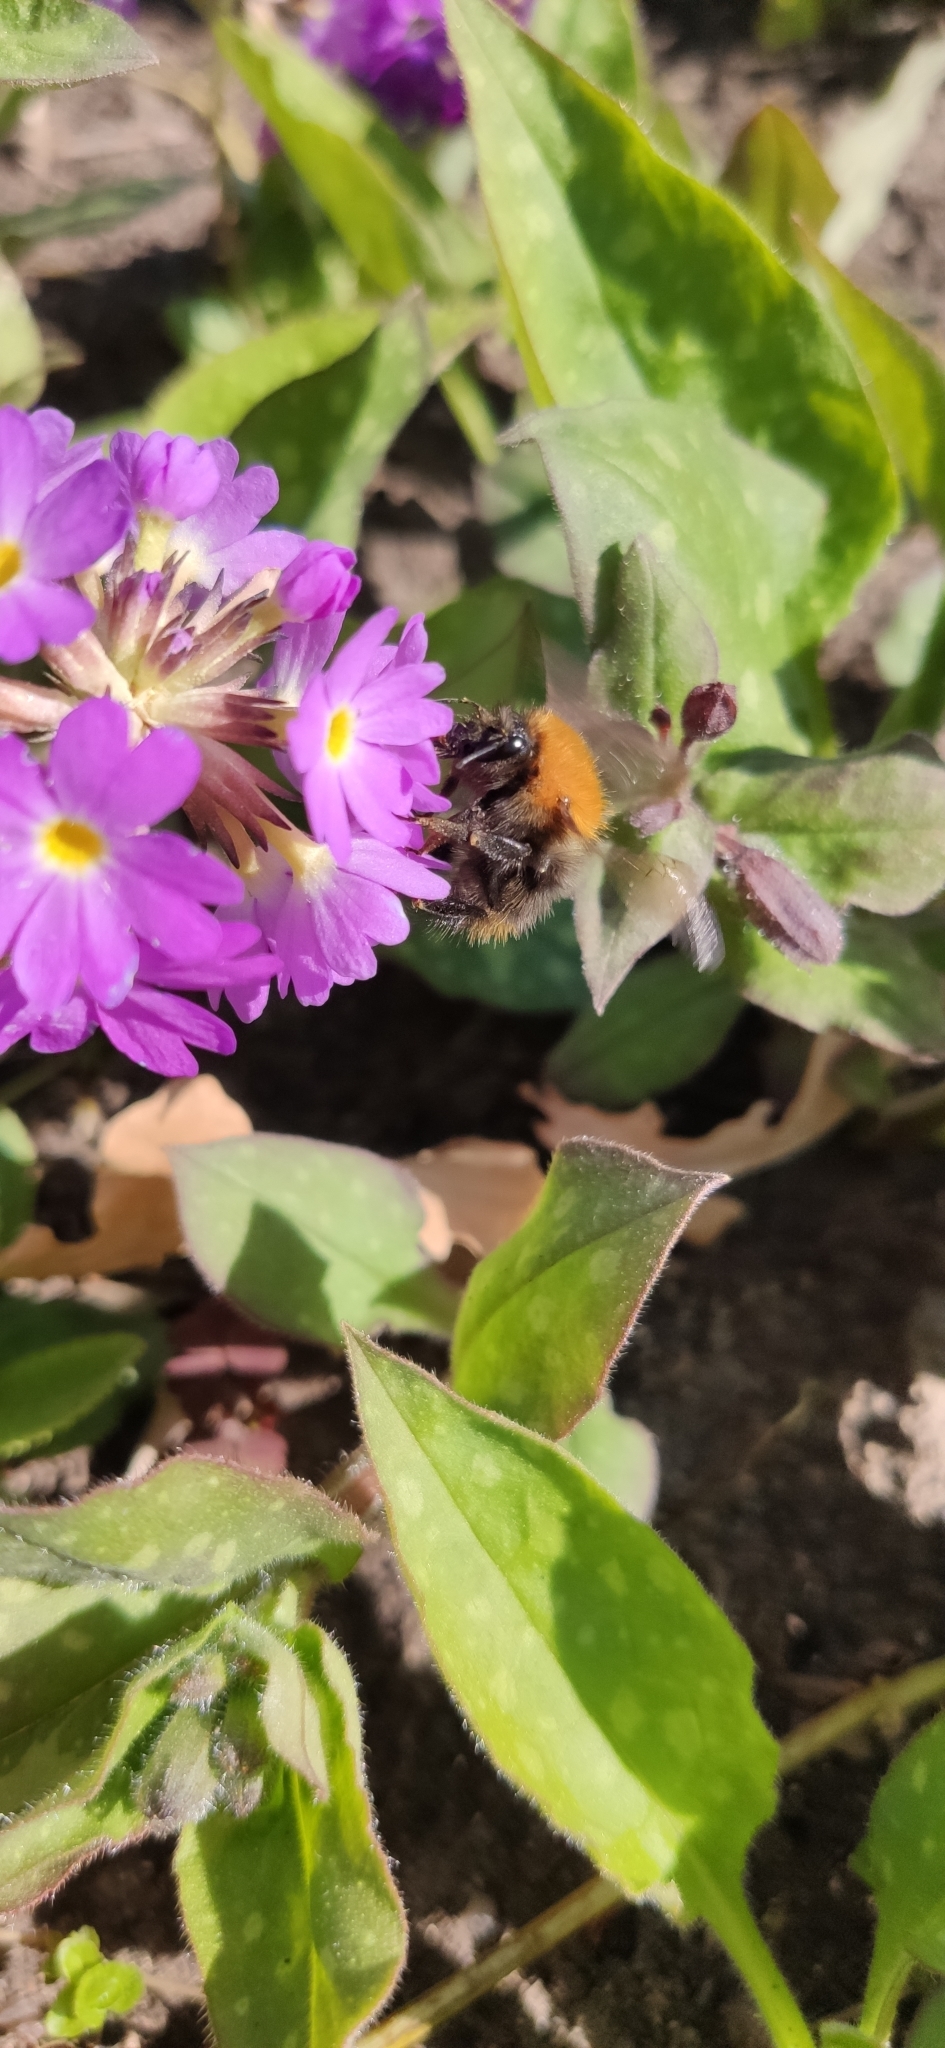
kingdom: Animalia
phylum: Arthropoda
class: Insecta
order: Hymenoptera
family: Apidae
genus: Bombus
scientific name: Bombus pascuorum
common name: Common carder bee
